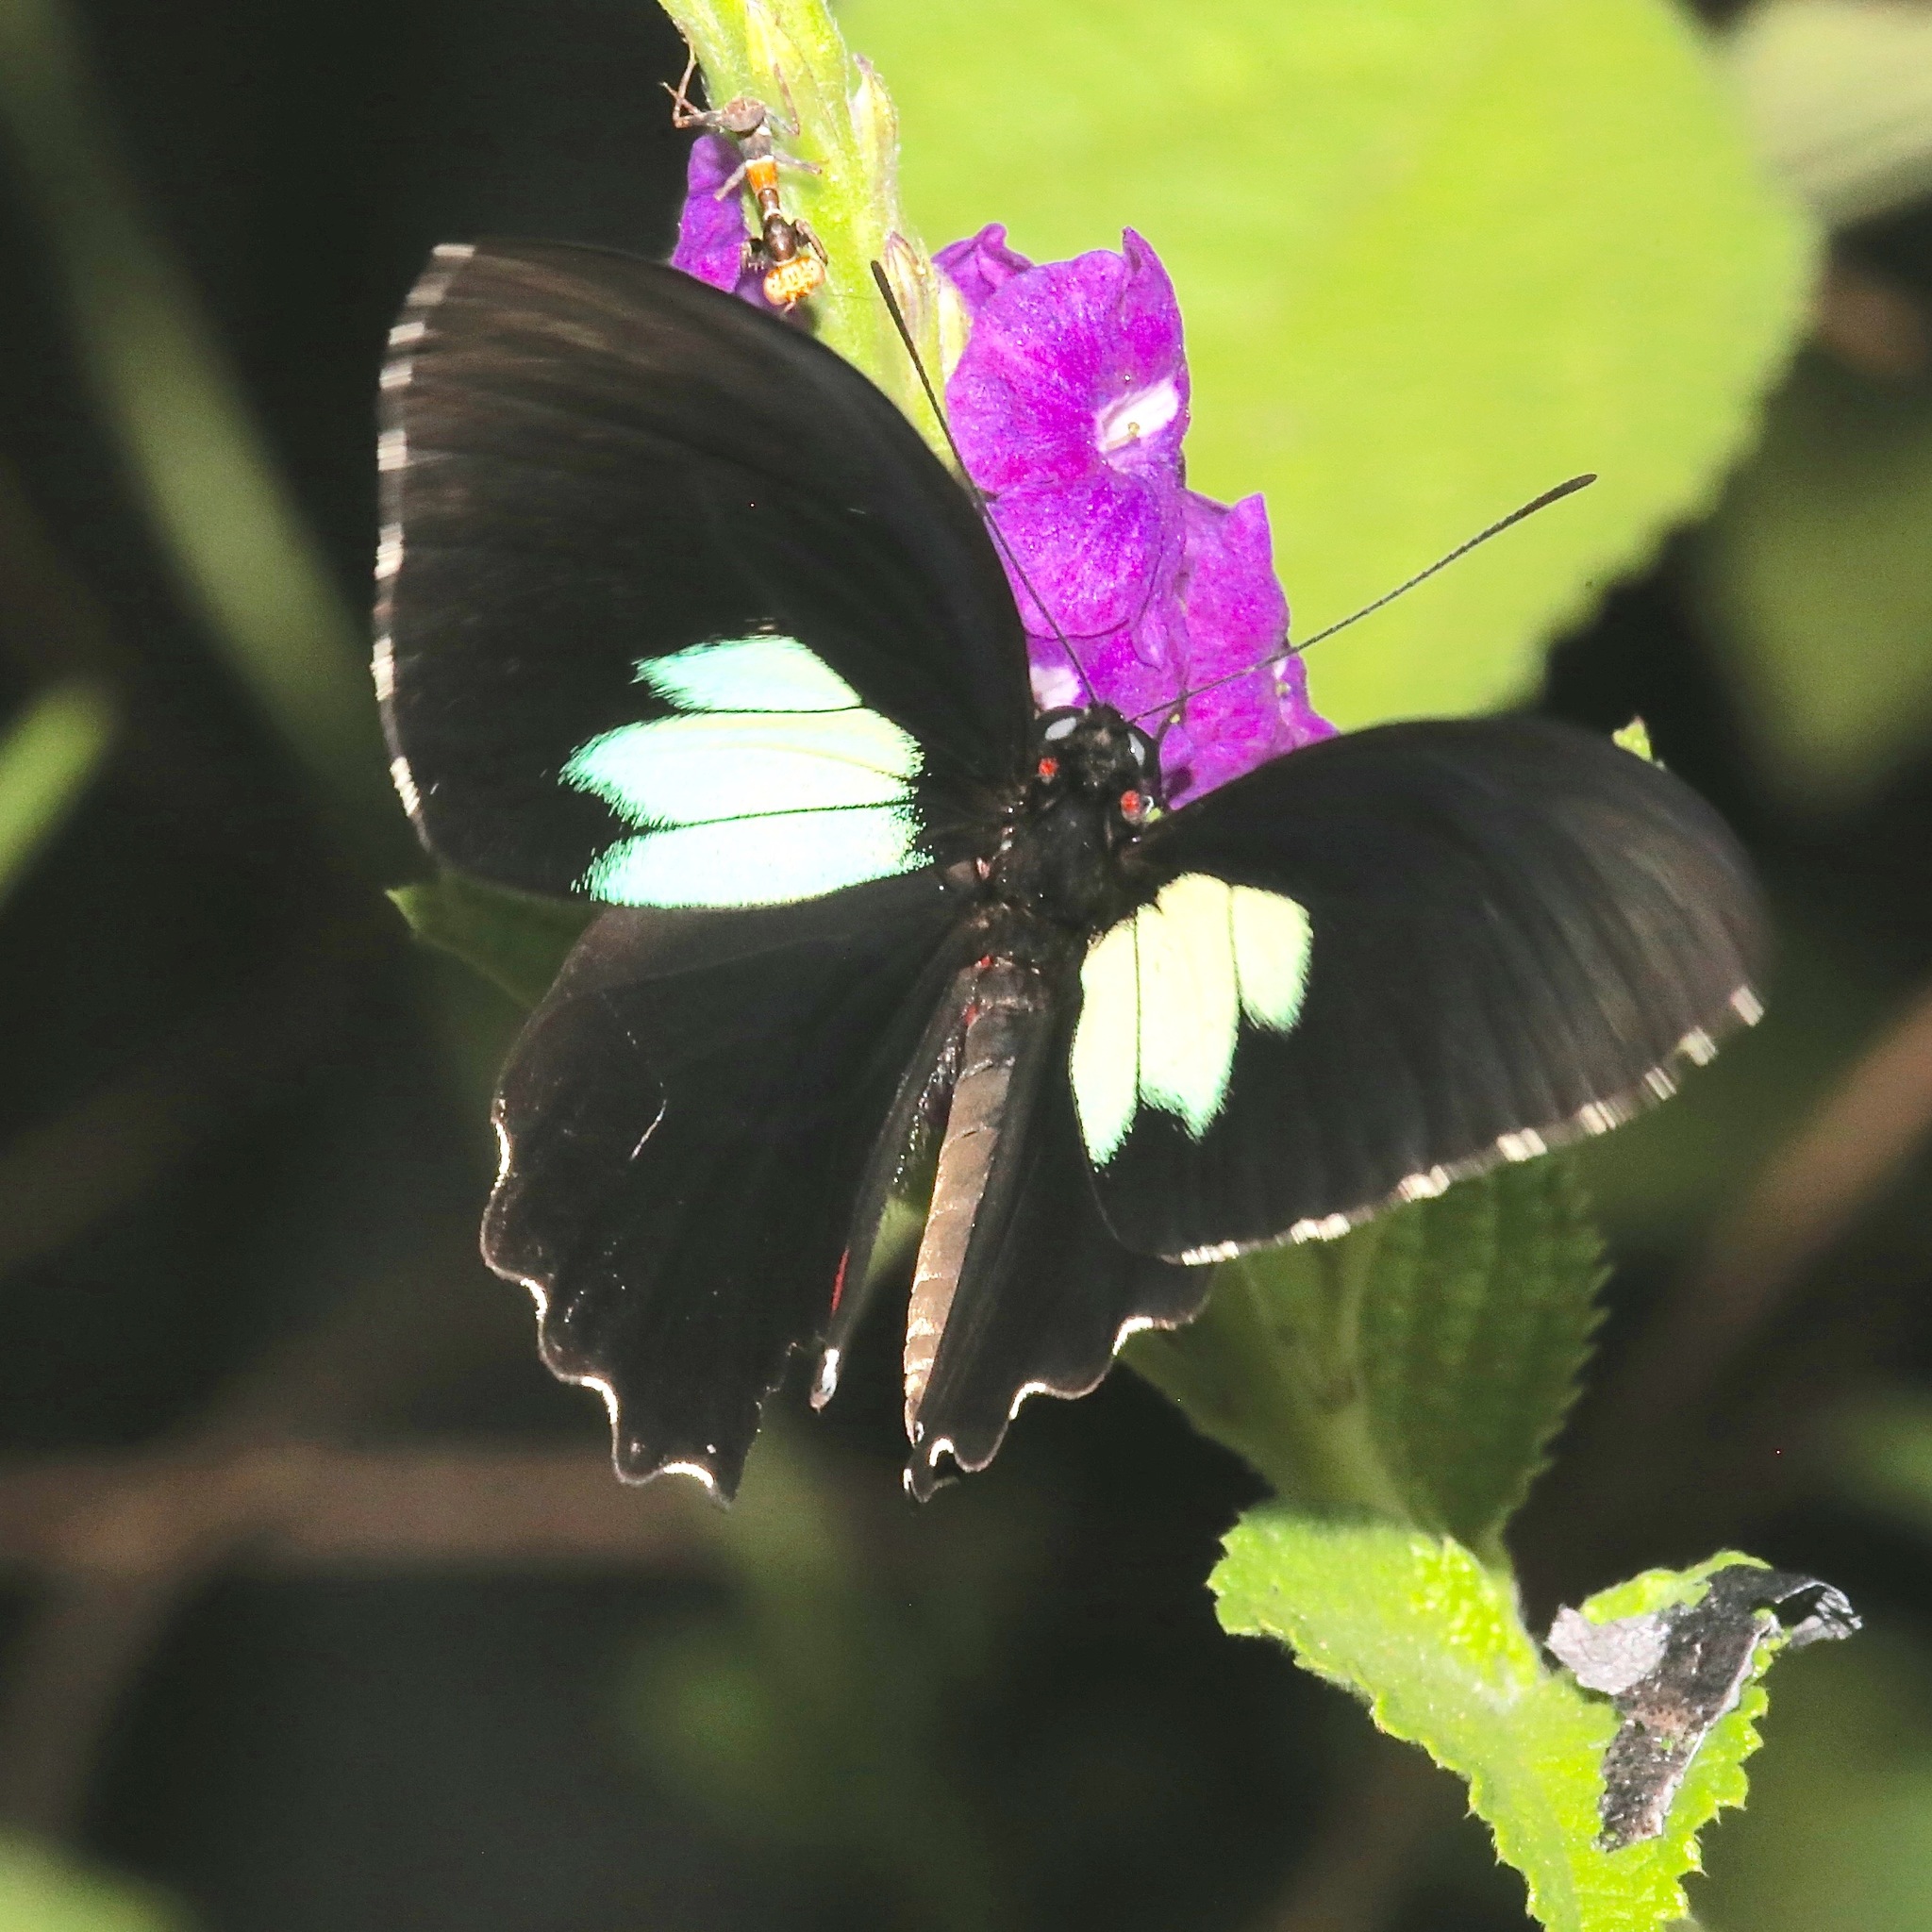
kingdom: Animalia
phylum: Arthropoda
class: Insecta
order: Lepidoptera
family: Papilionidae
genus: Parides
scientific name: Parides sesostris
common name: Southern cattle heart
